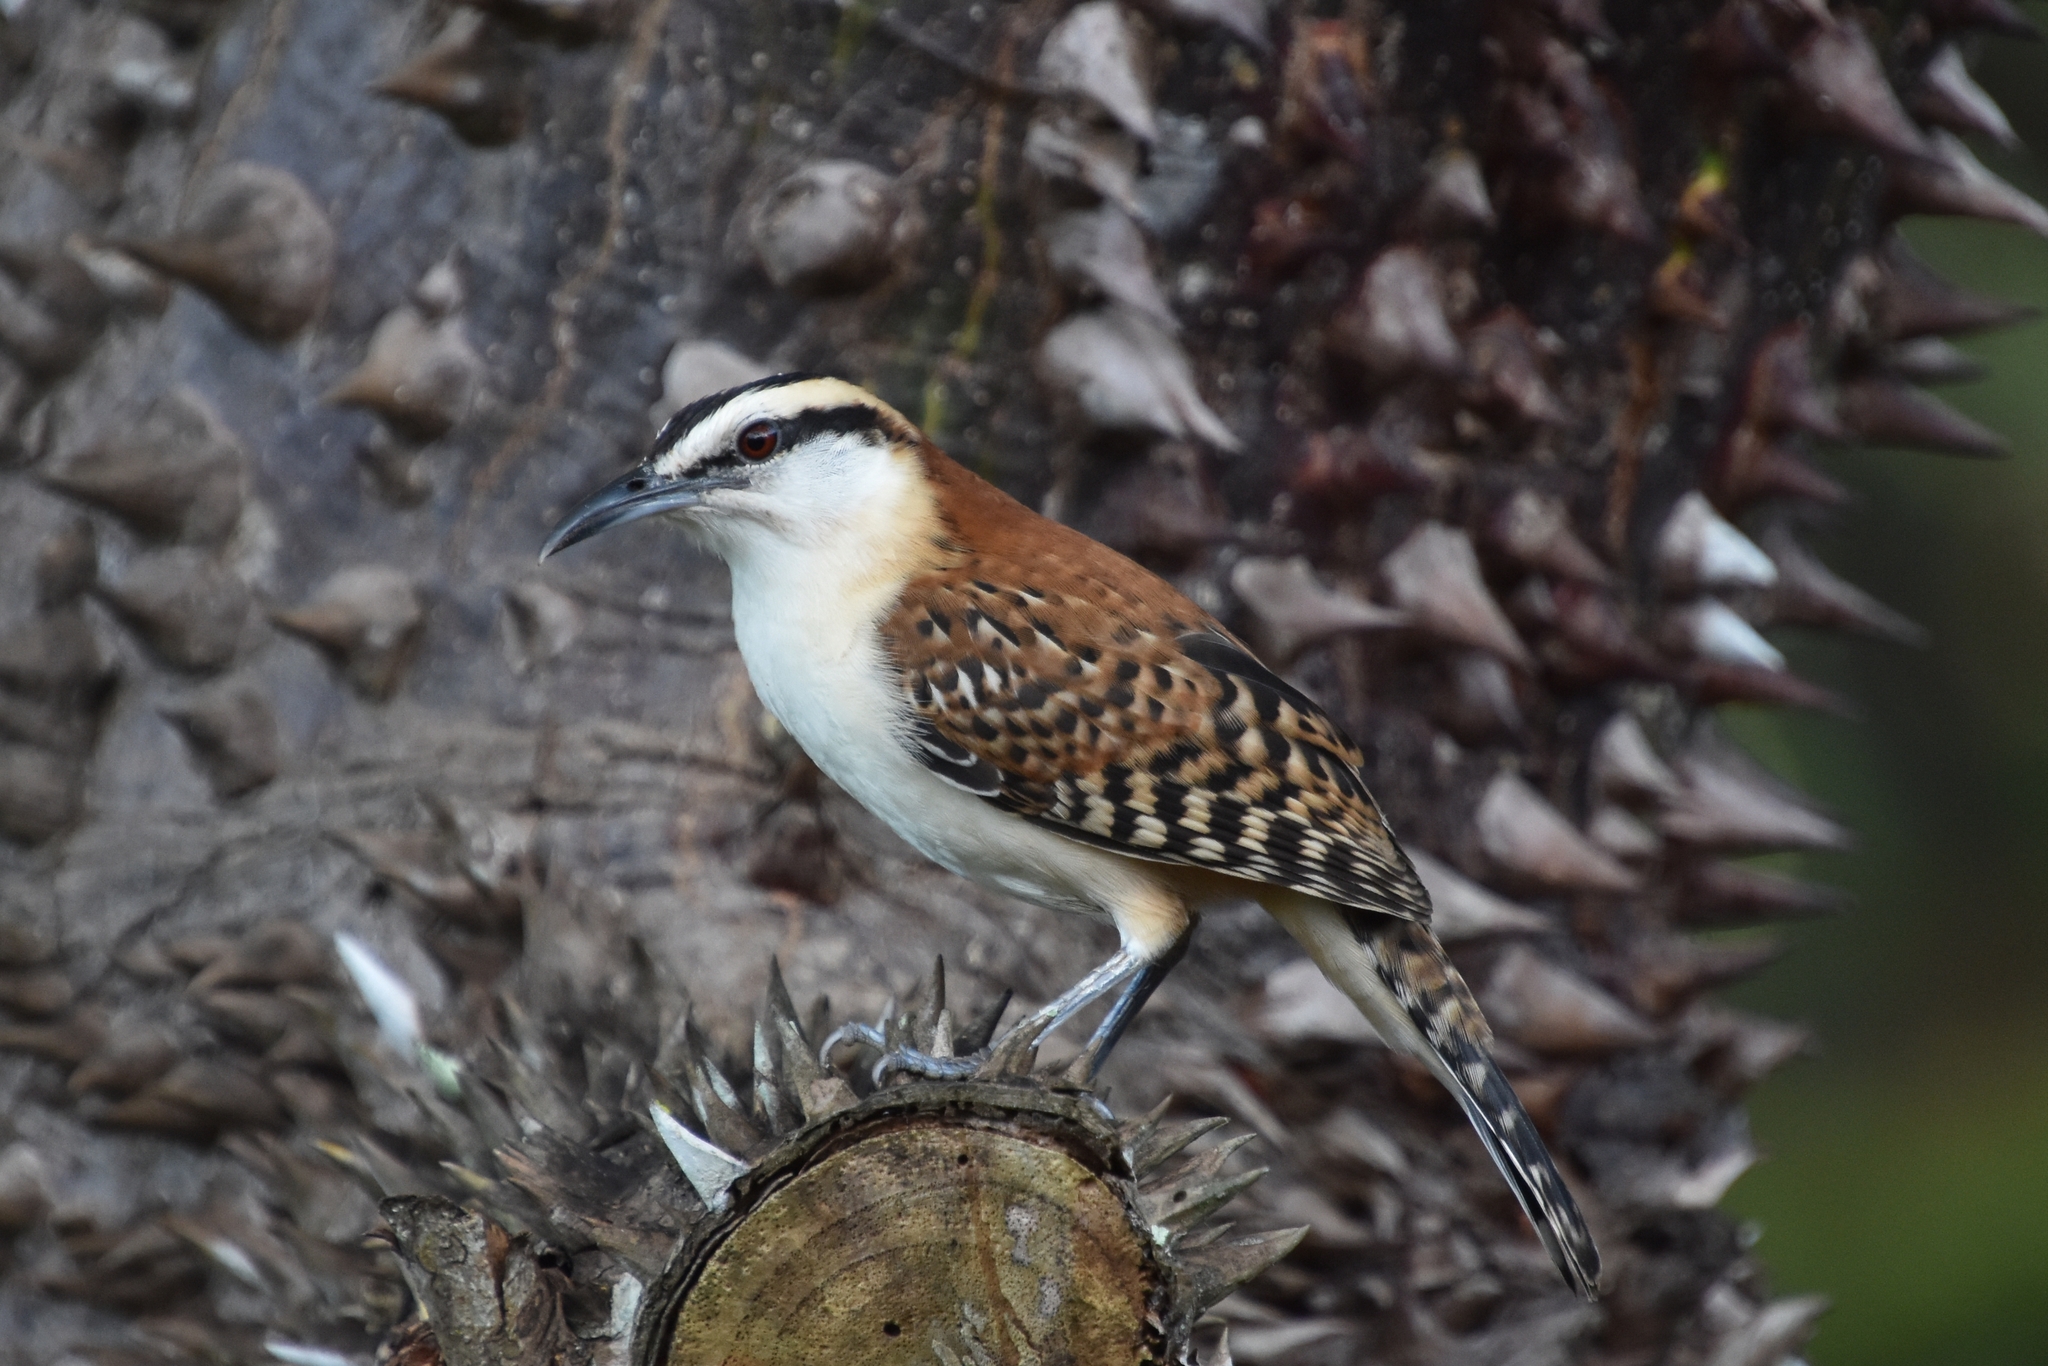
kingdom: Animalia
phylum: Chordata
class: Aves
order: Passeriformes
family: Troglodytidae
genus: Campylorhynchus
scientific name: Campylorhynchus rufinucha
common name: Rufous-naped wren
